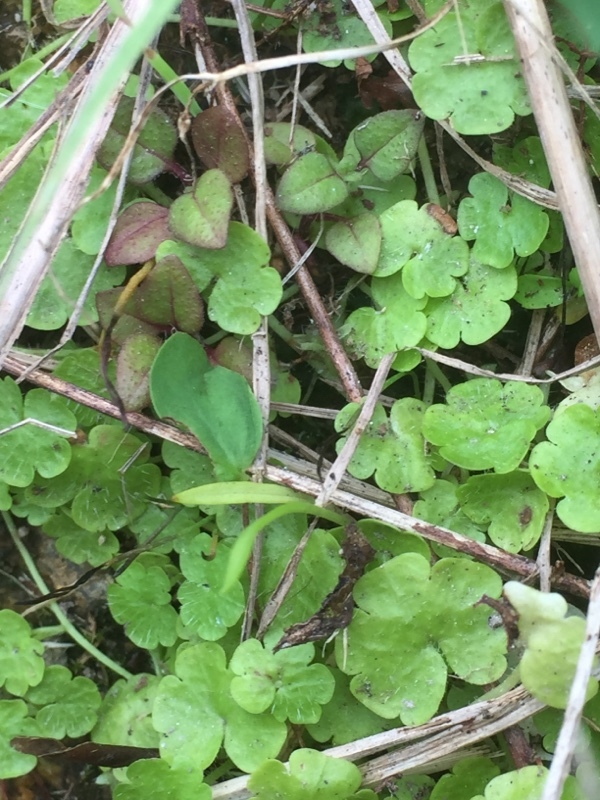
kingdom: Plantae
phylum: Tracheophyta
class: Magnoliopsida
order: Lamiales
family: Plantaginaceae
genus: Sibthorpia
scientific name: Sibthorpia europaea
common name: Cornish moneywort
